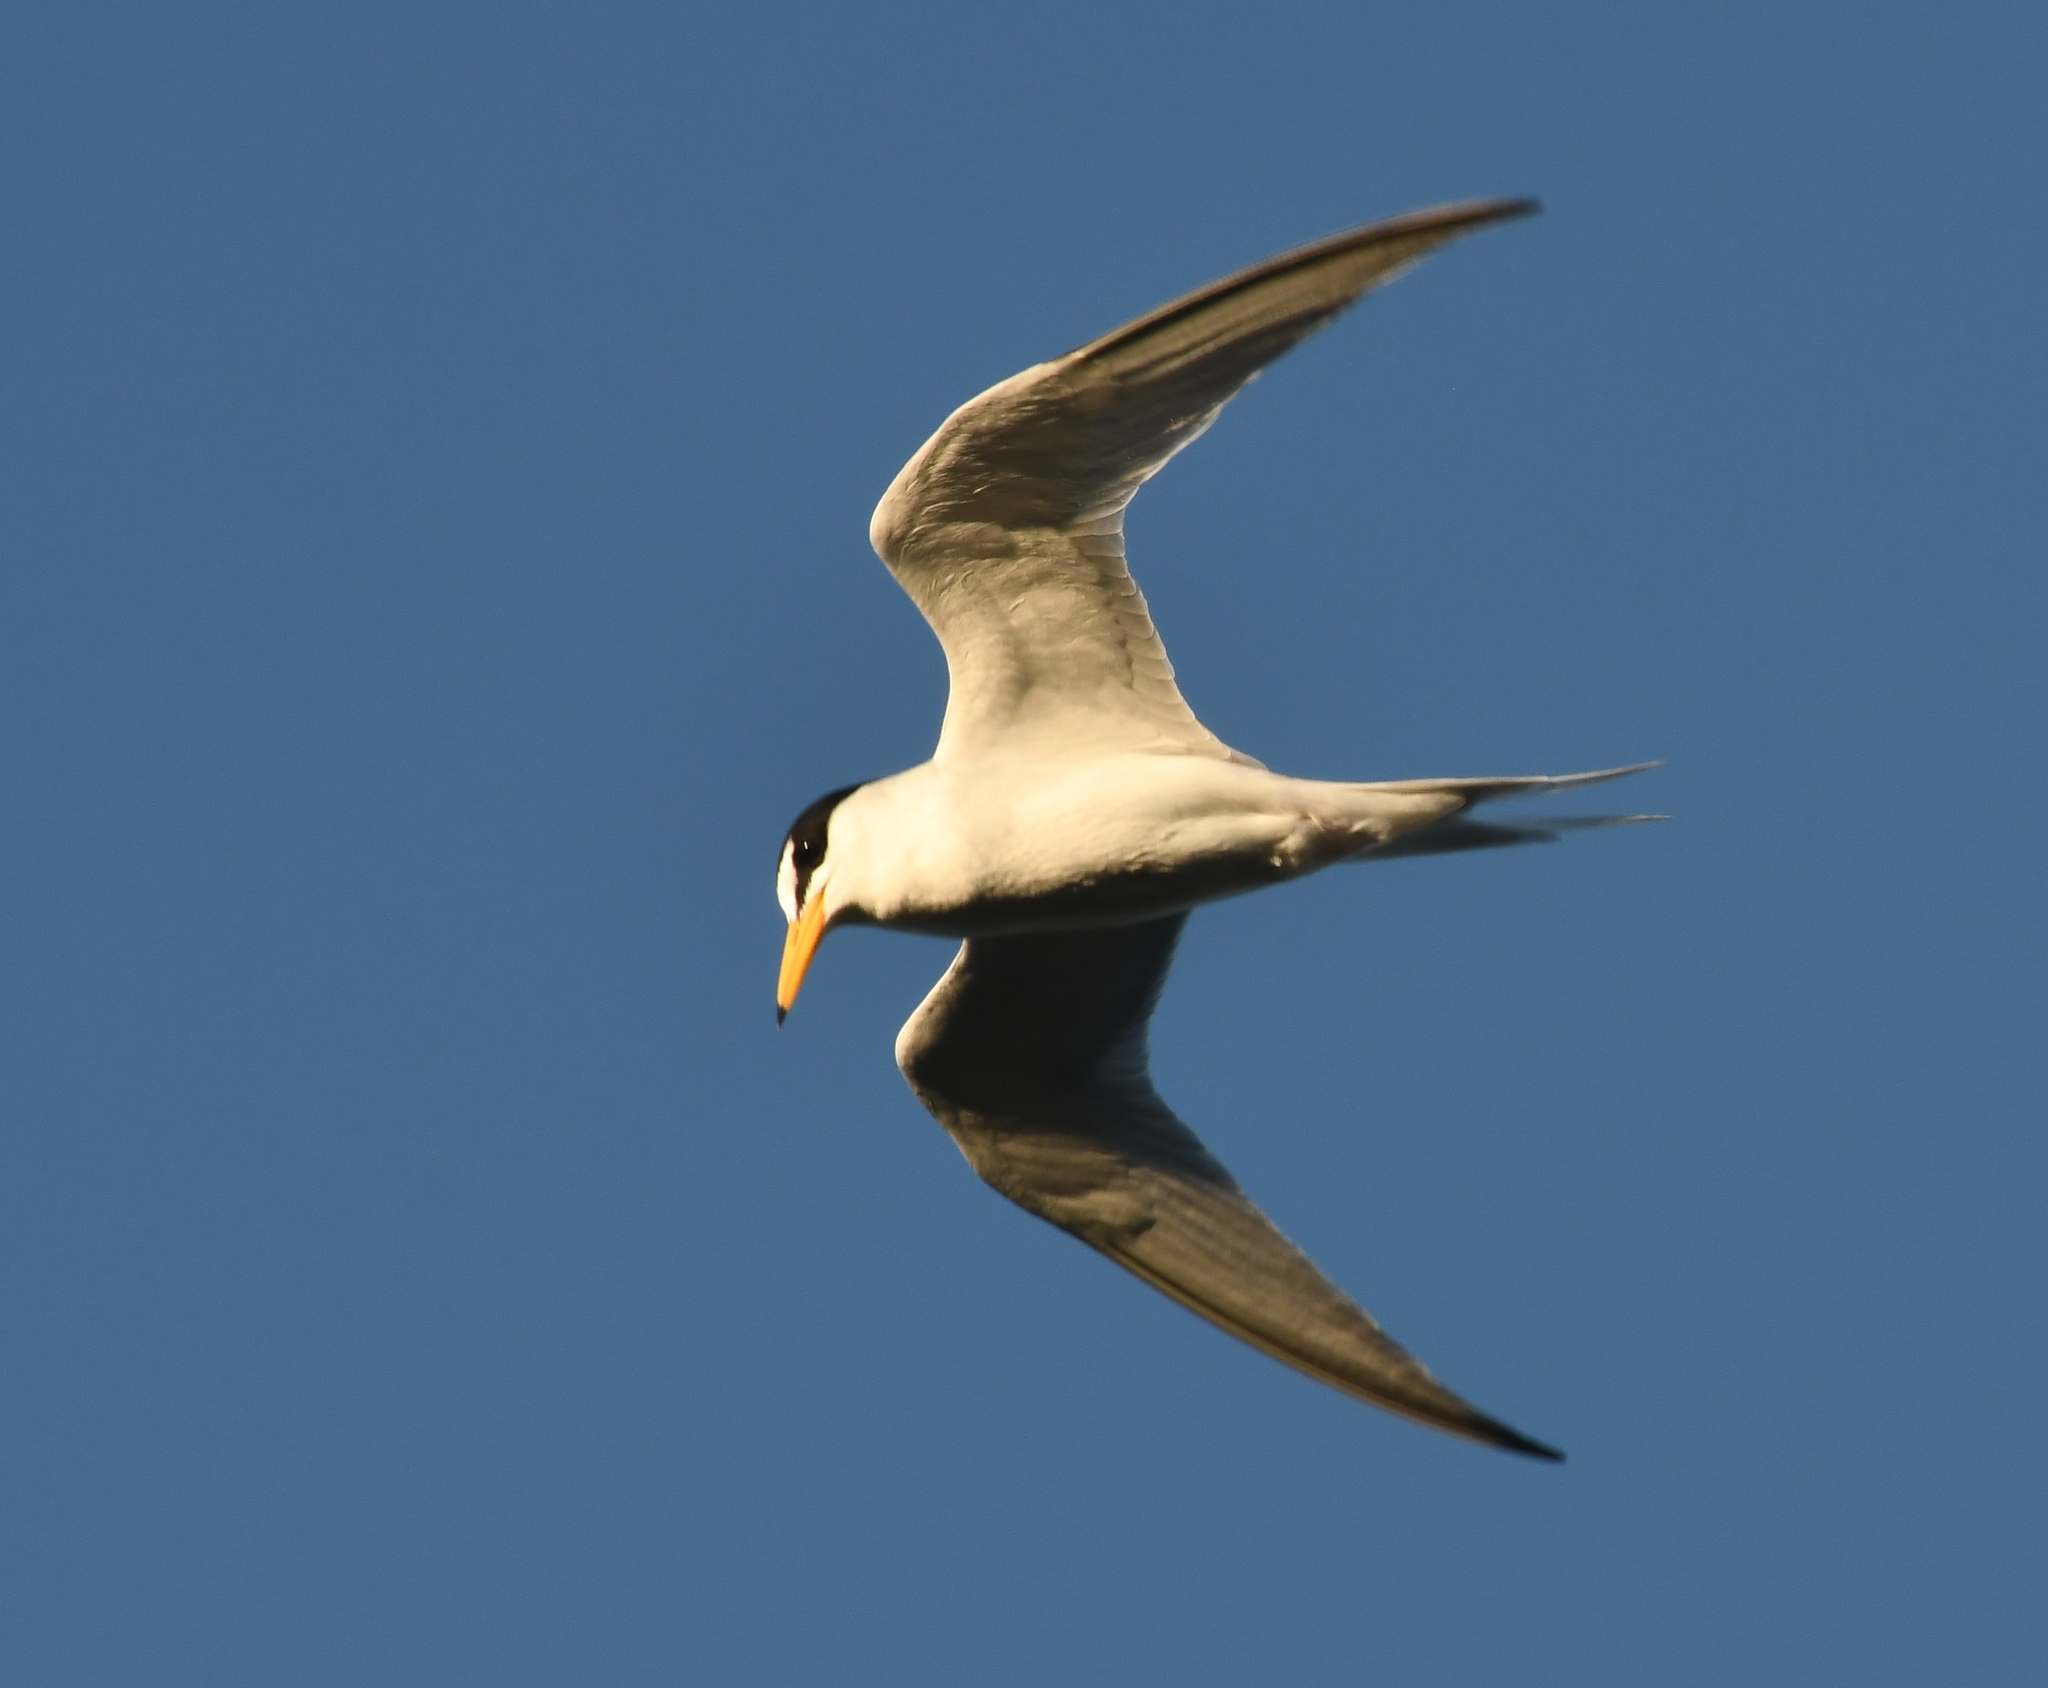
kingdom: Animalia
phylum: Chordata
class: Aves
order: Charadriiformes
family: Laridae
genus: Sternula
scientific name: Sternula antillarum
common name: Least tern
